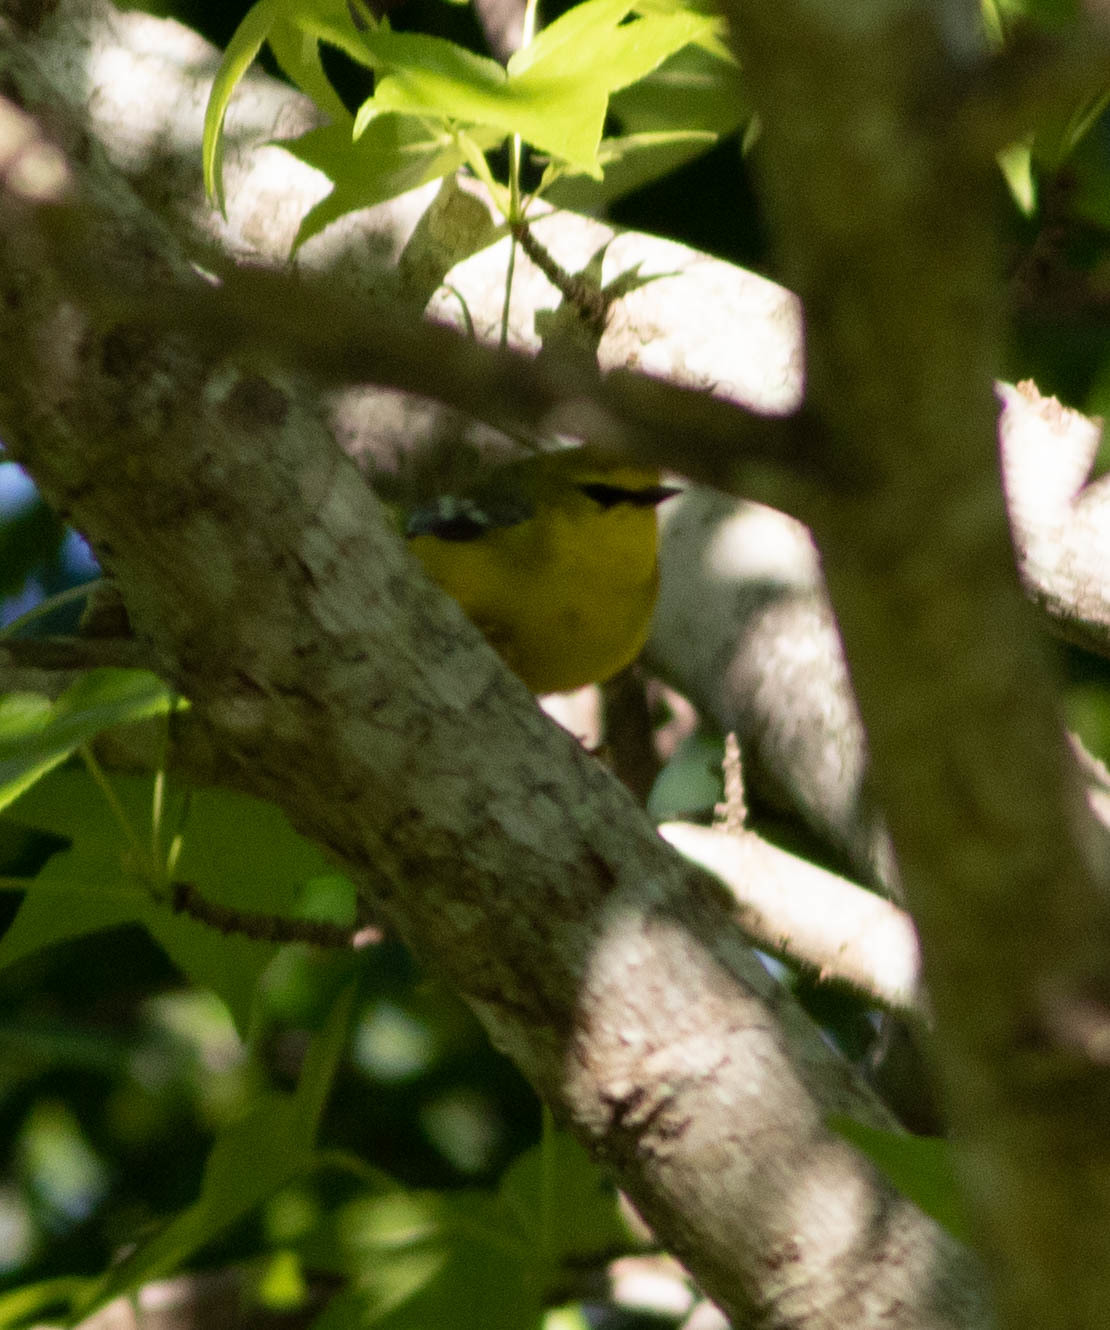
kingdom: Animalia
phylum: Chordata
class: Aves
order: Passeriformes
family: Parulidae
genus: Vermivora
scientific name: Vermivora cyanoptera
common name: Blue-winged warbler
